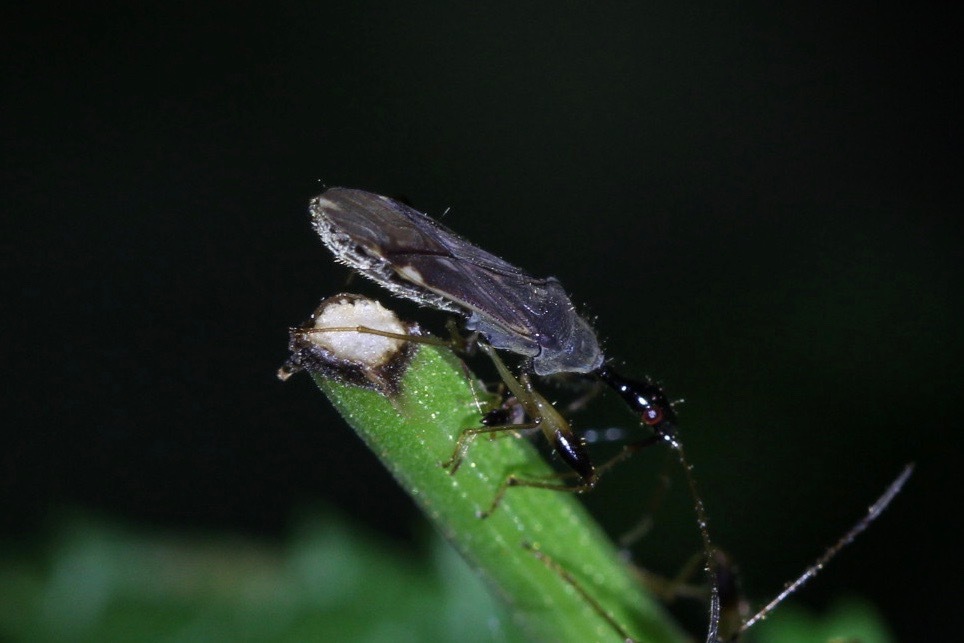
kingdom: Animalia
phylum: Arthropoda
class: Insecta
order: Hemiptera
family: Rhyparochromidae
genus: Myodocha
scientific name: Myodocha serripes
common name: Long-necked seed bug
